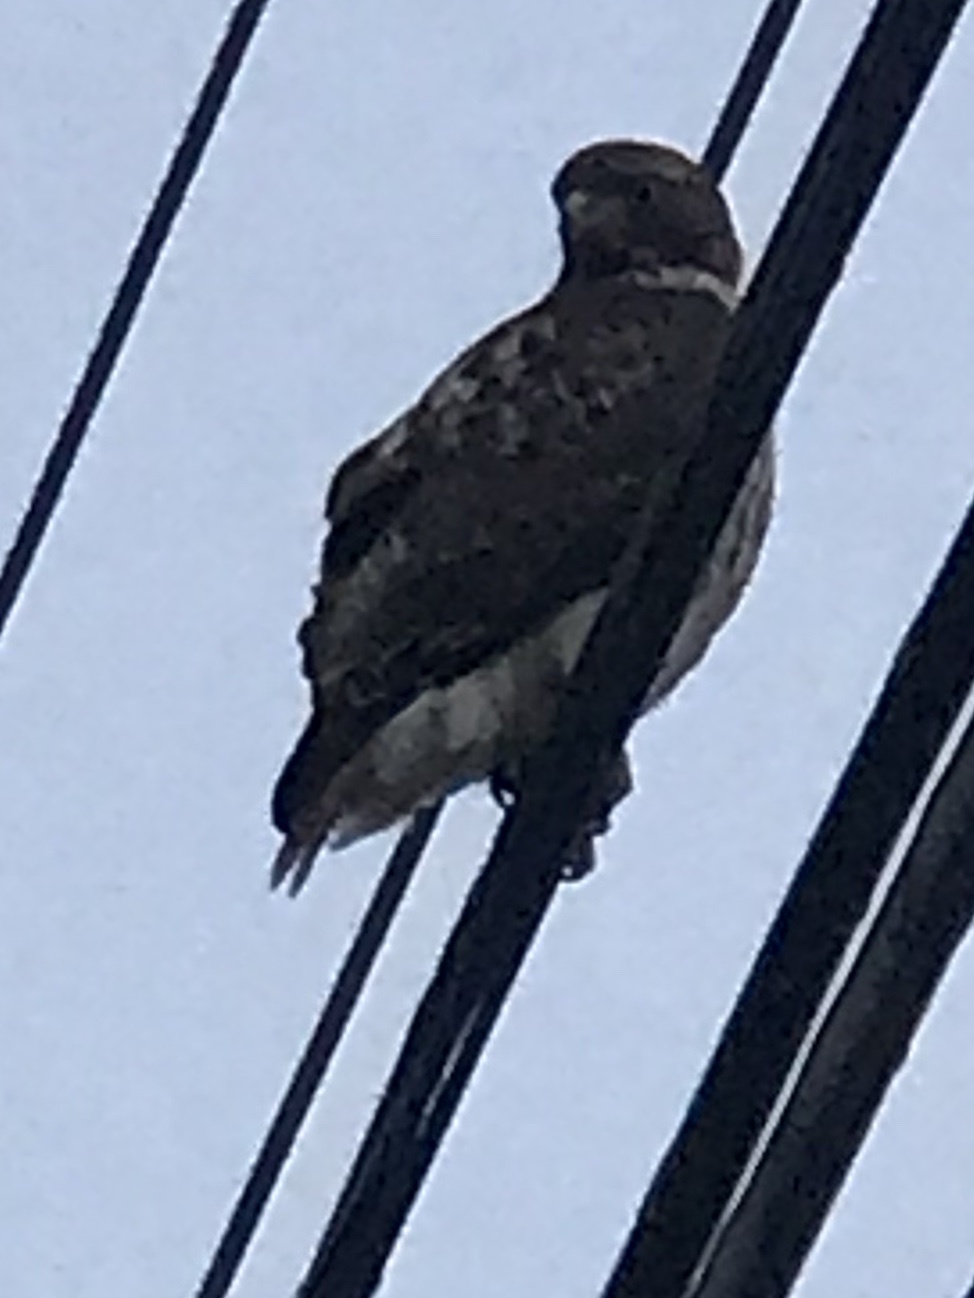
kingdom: Animalia
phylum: Chordata
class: Aves
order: Accipitriformes
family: Accipitridae
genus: Buteo
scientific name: Buteo jamaicensis
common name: Red-tailed hawk
